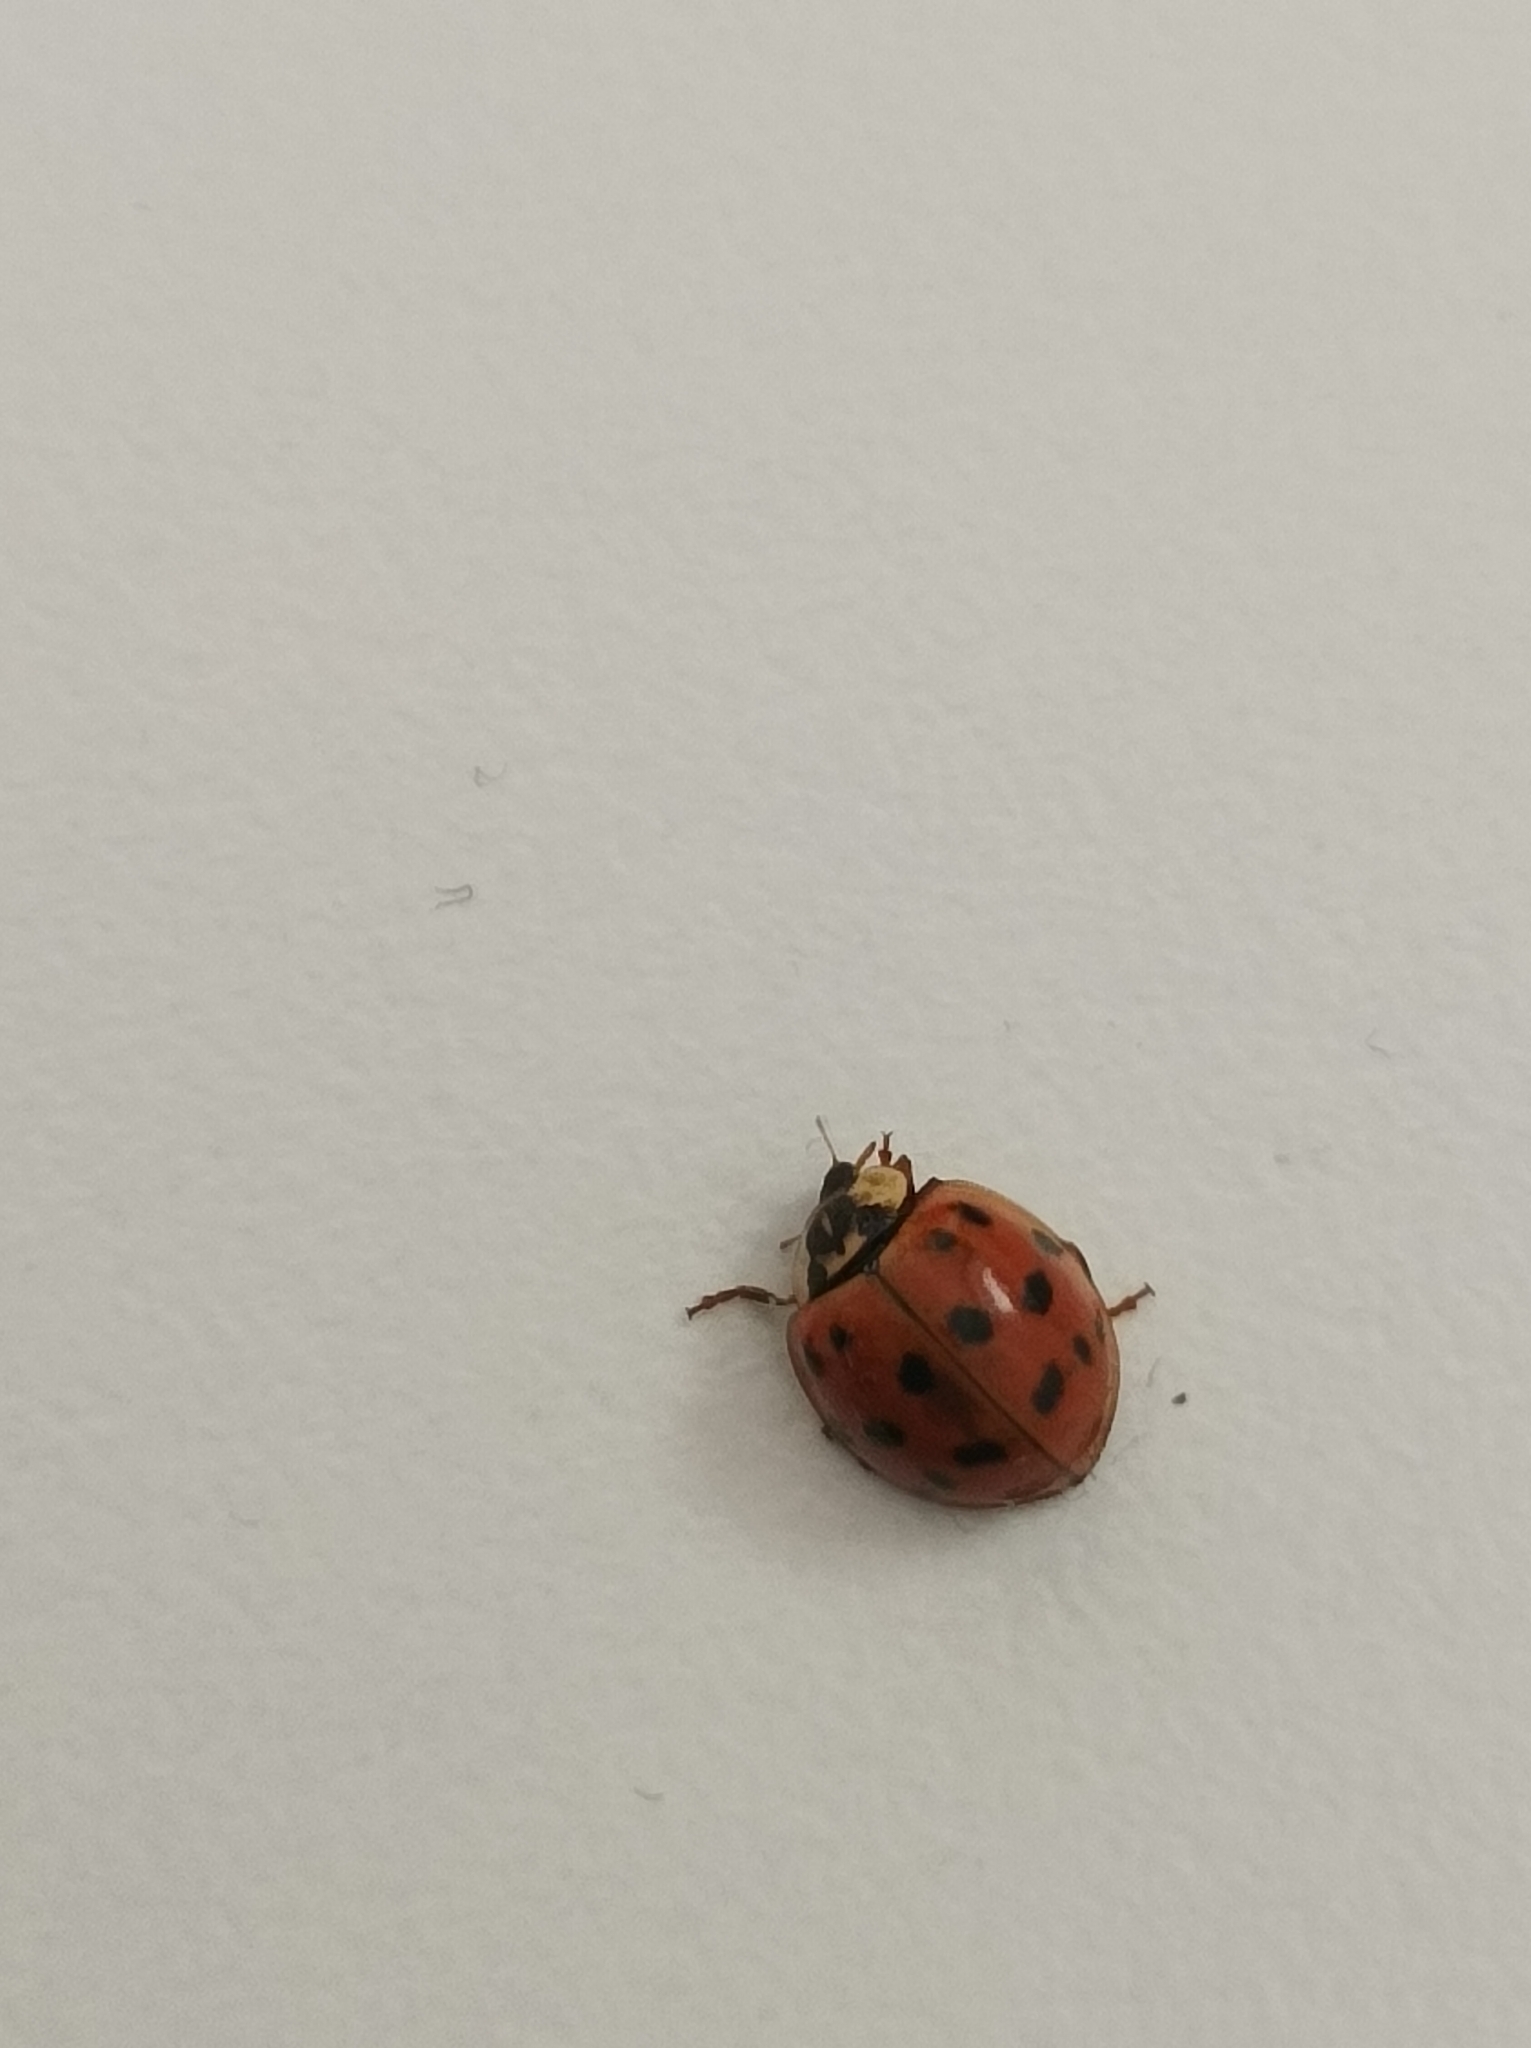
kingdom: Animalia
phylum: Arthropoda
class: Insecta
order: Coleoptera
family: Coccinellidae
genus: Harmonia
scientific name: Harmonia axyridis
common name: Harlequin ladybird
